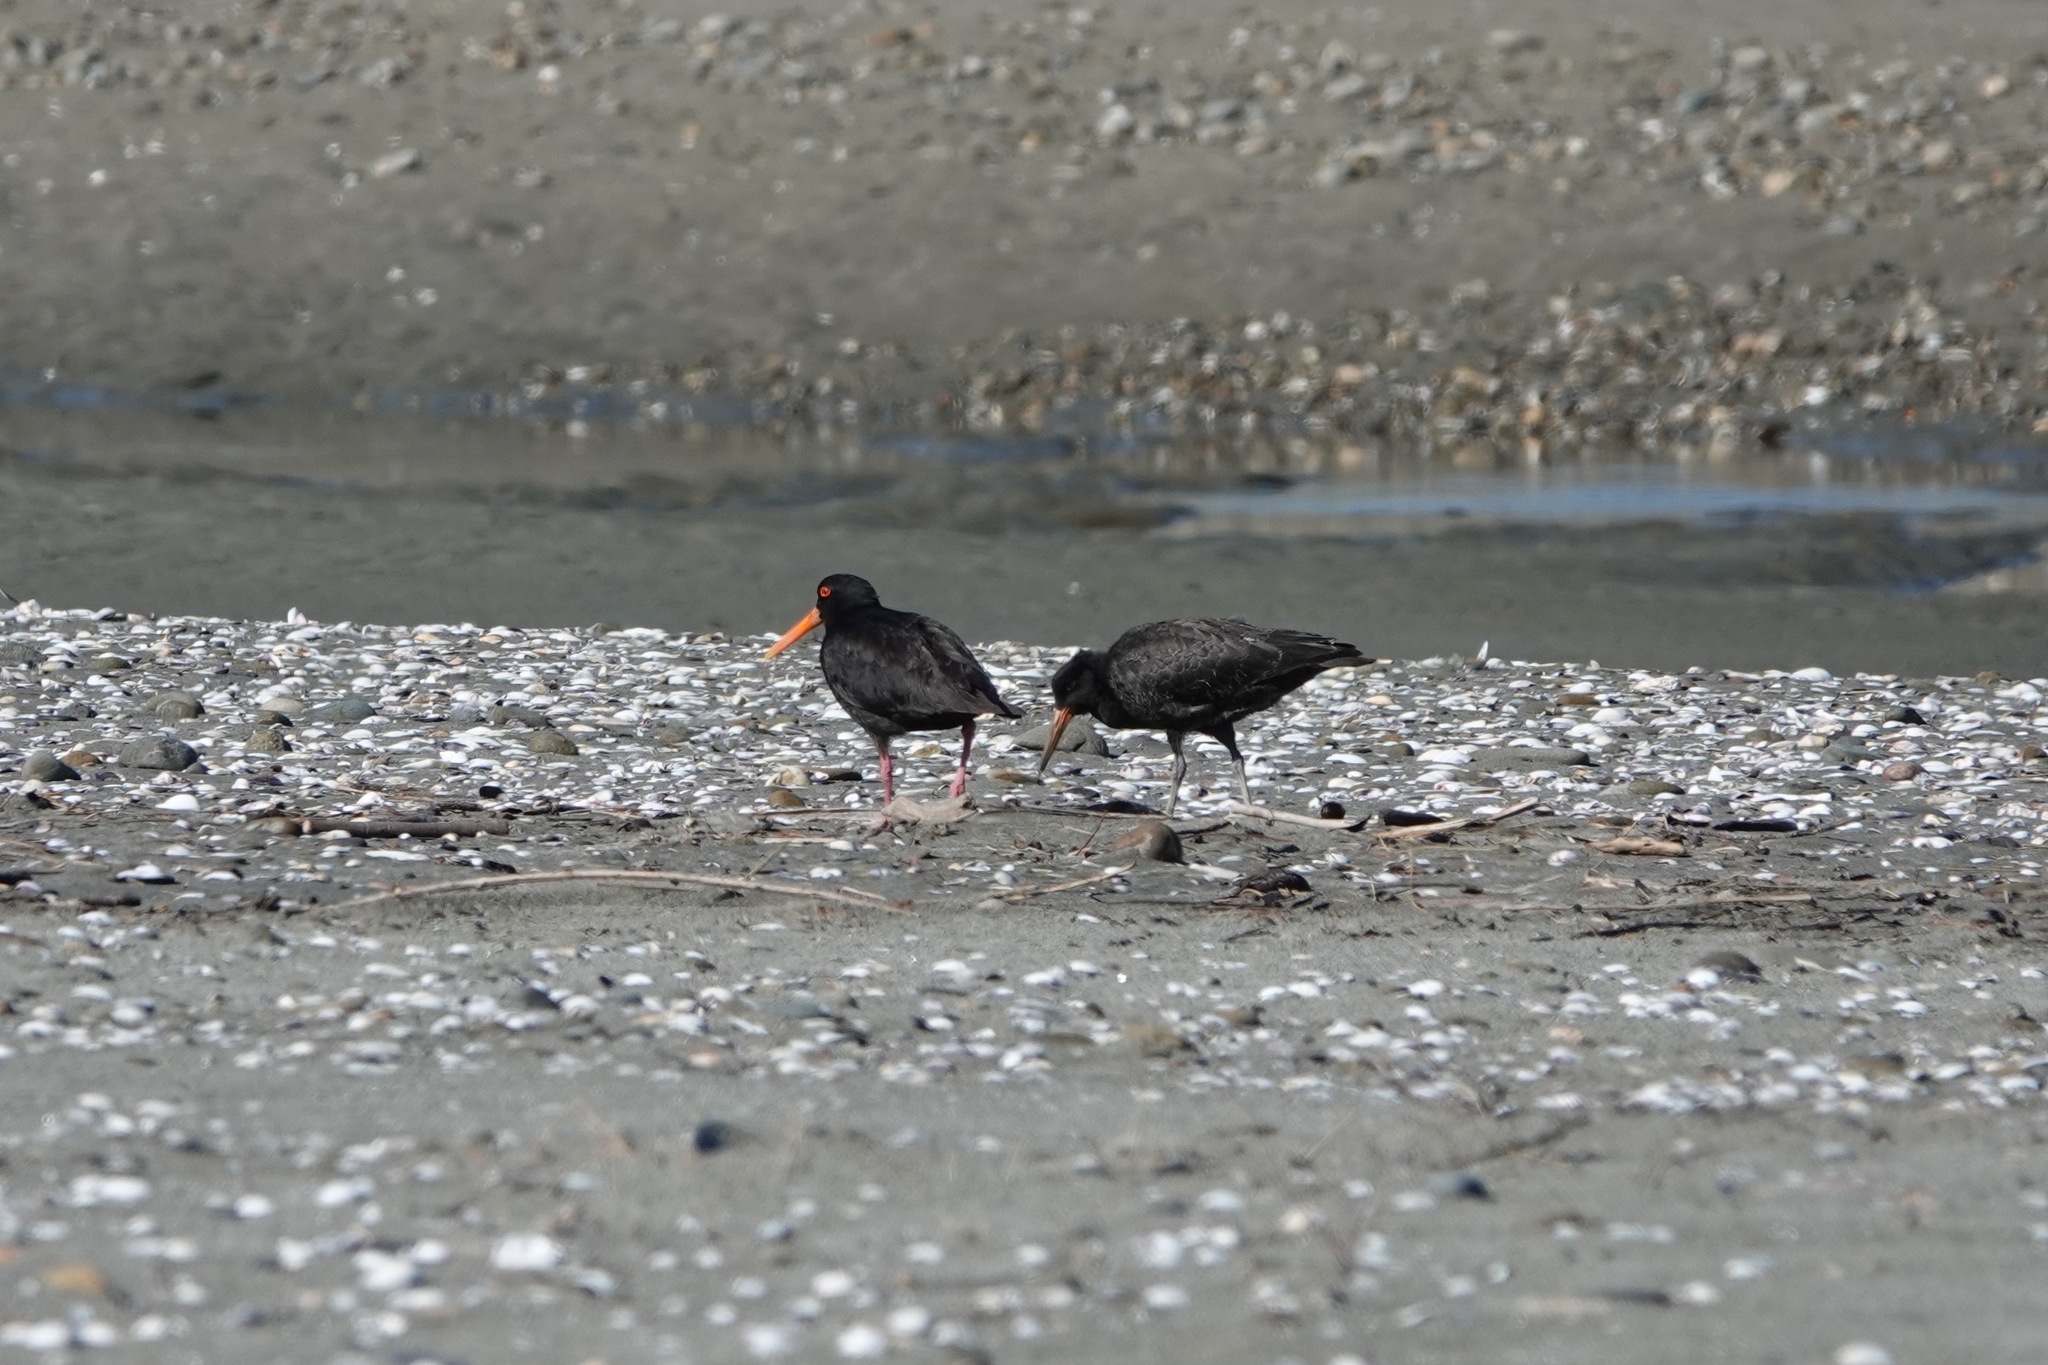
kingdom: Animalia
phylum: Chordata
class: Aves
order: Charadriiformes
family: Haematopodidae
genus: Haematopus
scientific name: Haematopus unicolor
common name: Variable oystercatcher
